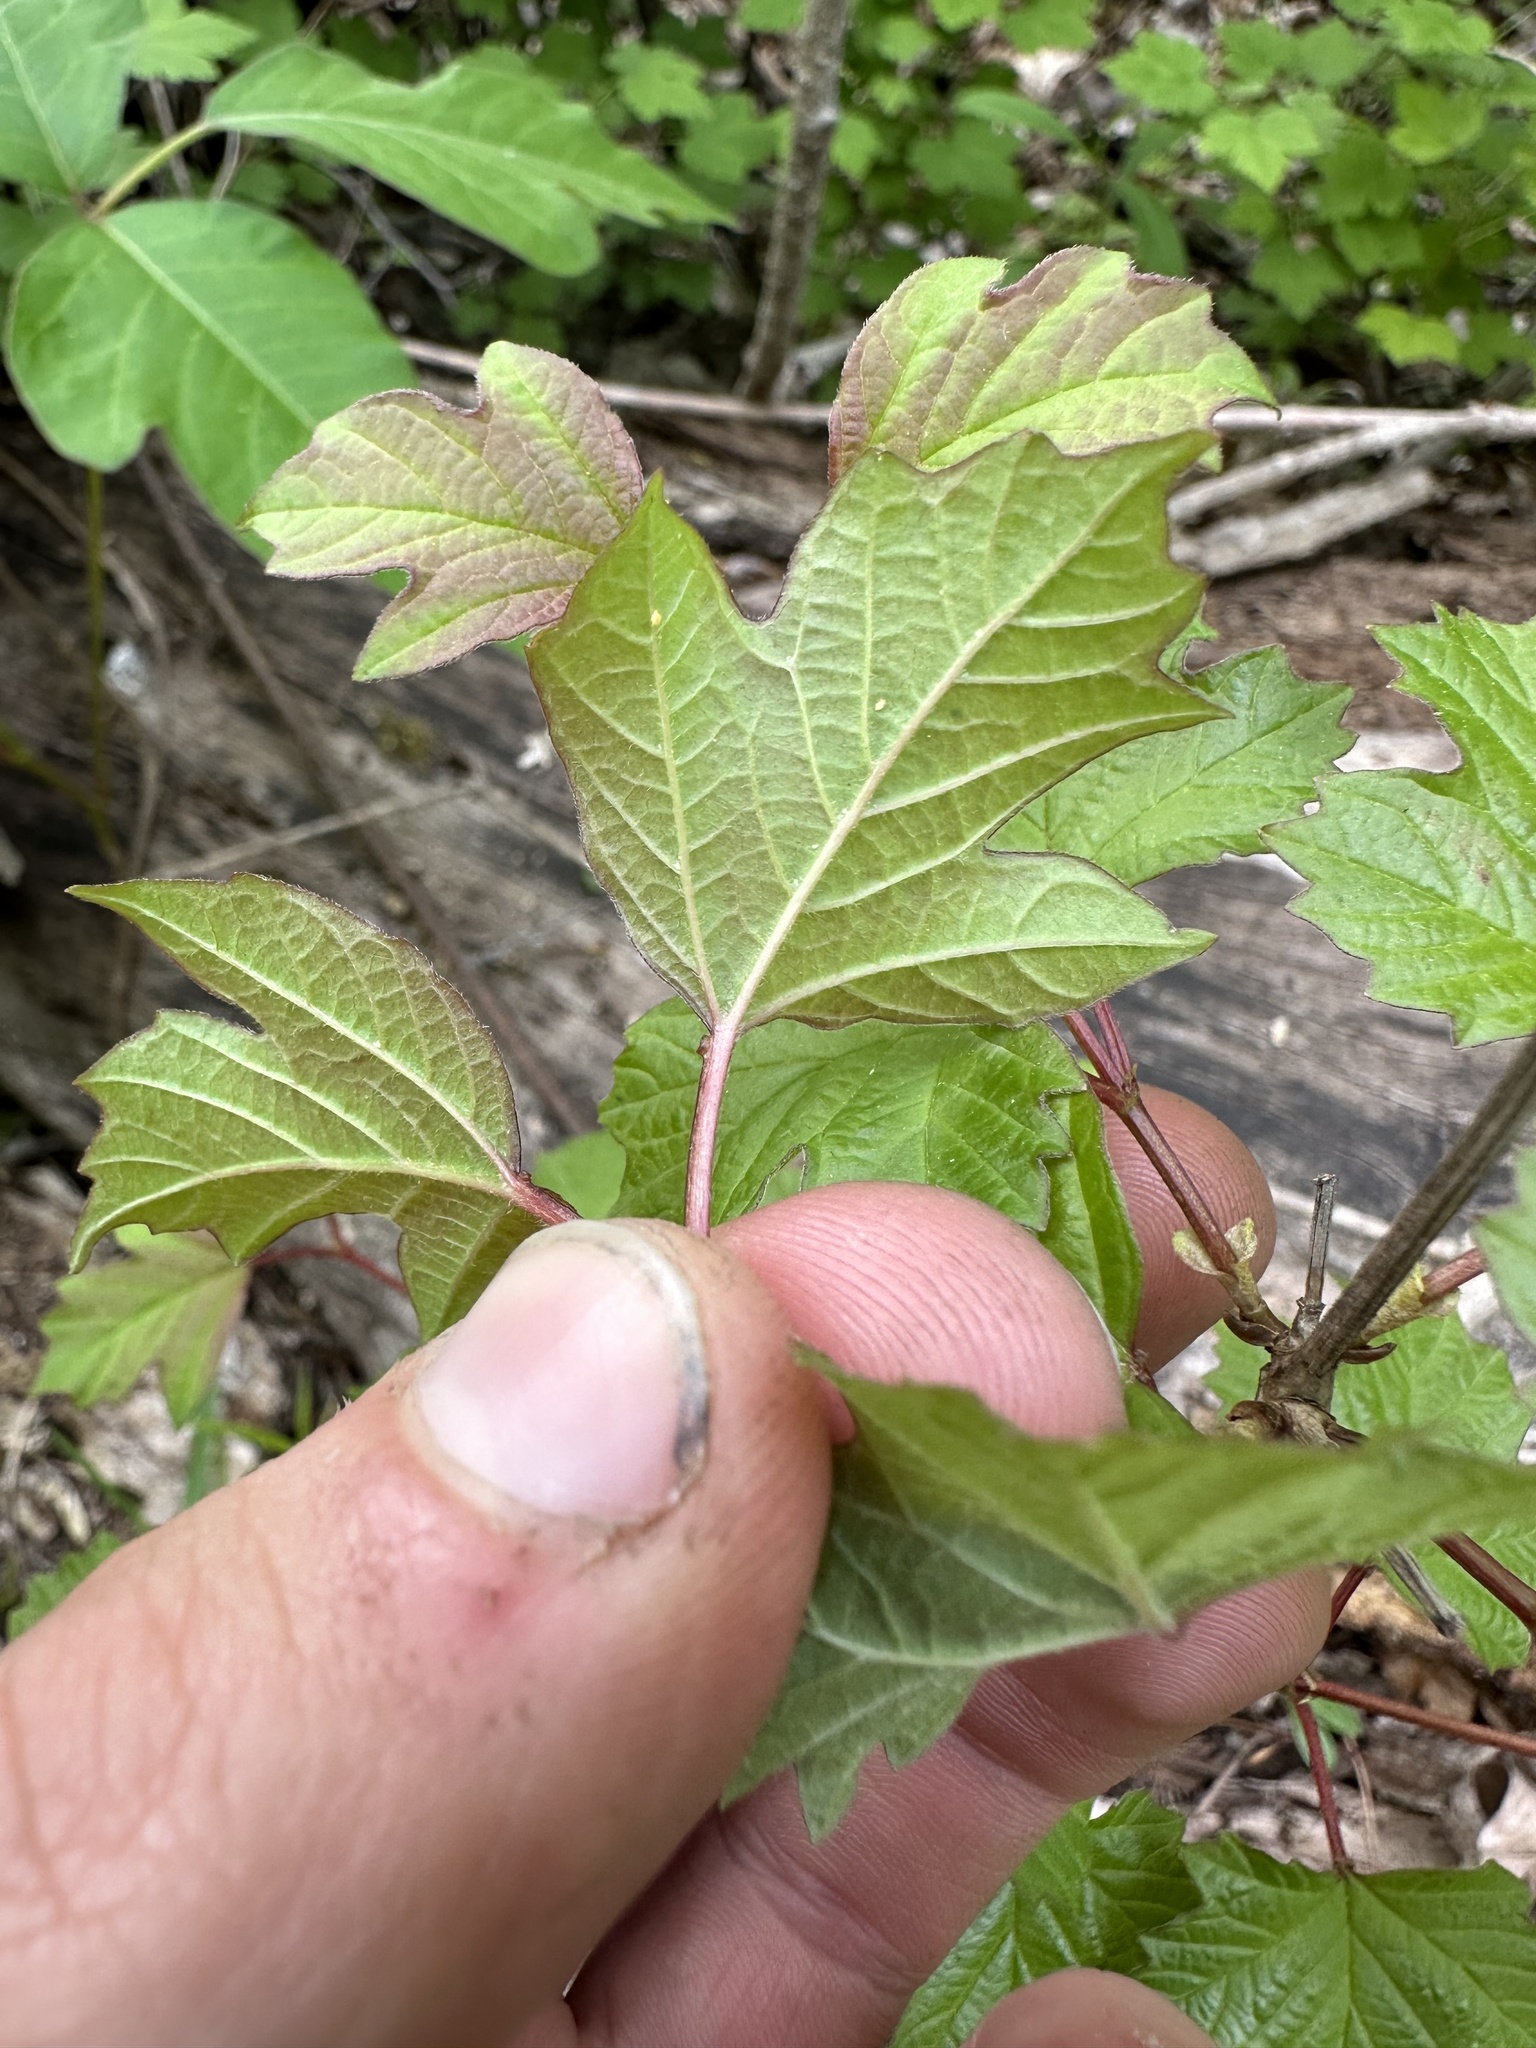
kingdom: Plantae
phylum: Tracheophyta
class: Magnoliopsida
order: Dipsacales
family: Viburnaceae
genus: Viburnum
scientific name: Viburnum opulus
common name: Guelder-rose
